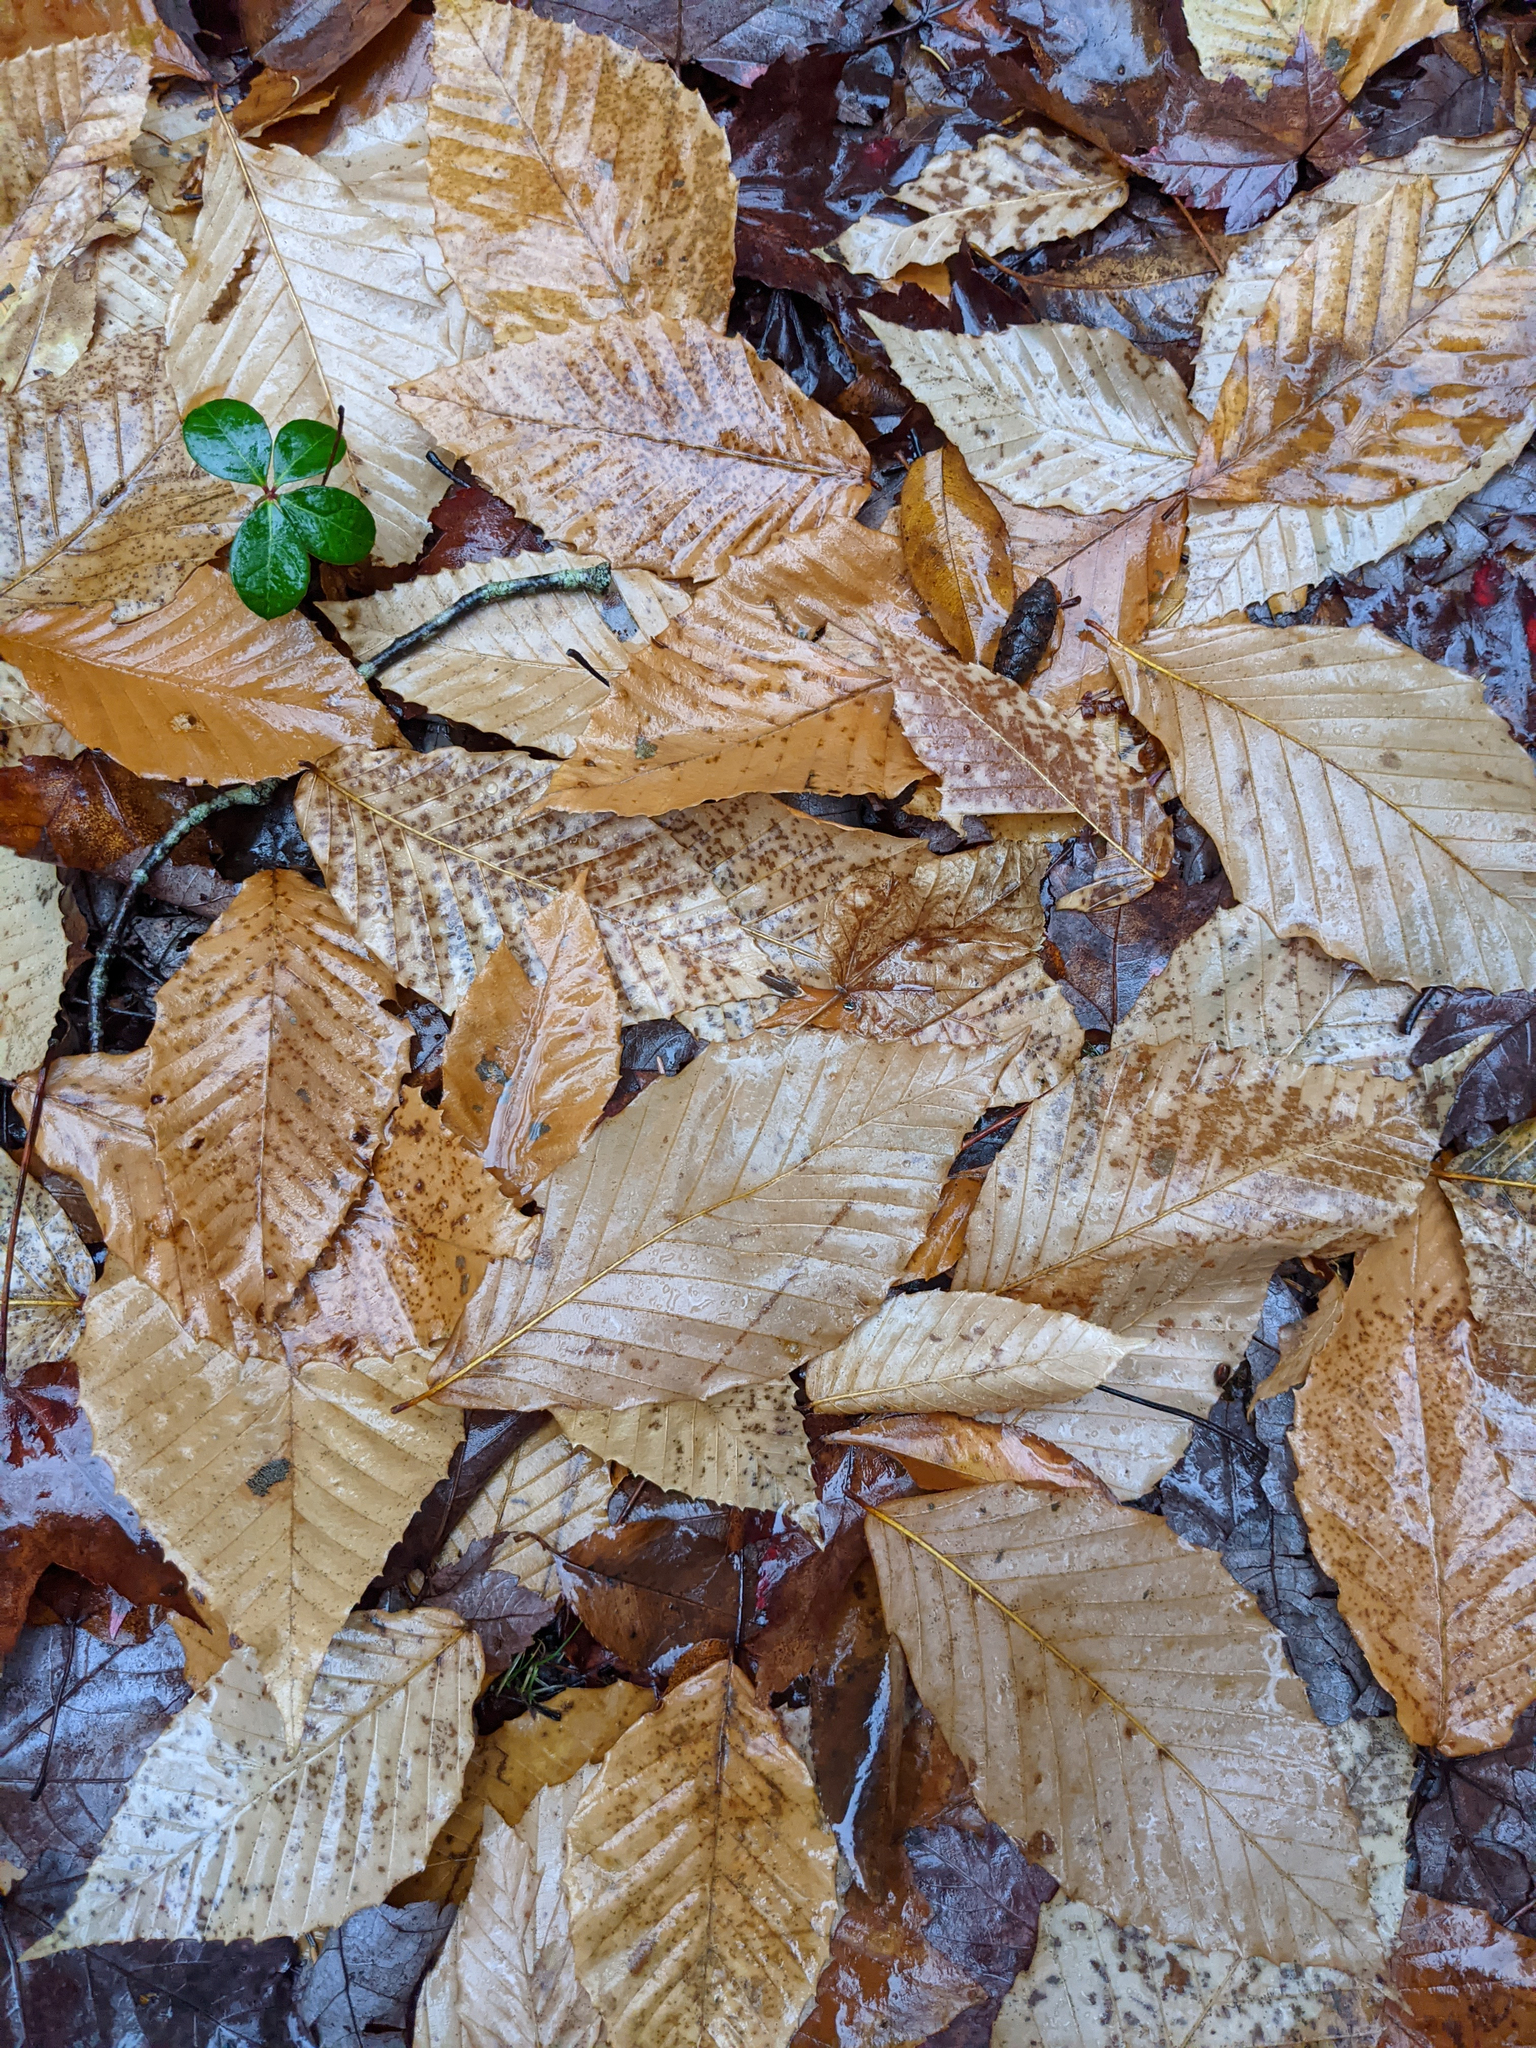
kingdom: Plantae
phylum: Tracheophyta
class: Magnoliopsida
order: Fagales
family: Fagaceae
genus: Fagus
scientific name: Fagus grandifolia
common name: American beech
